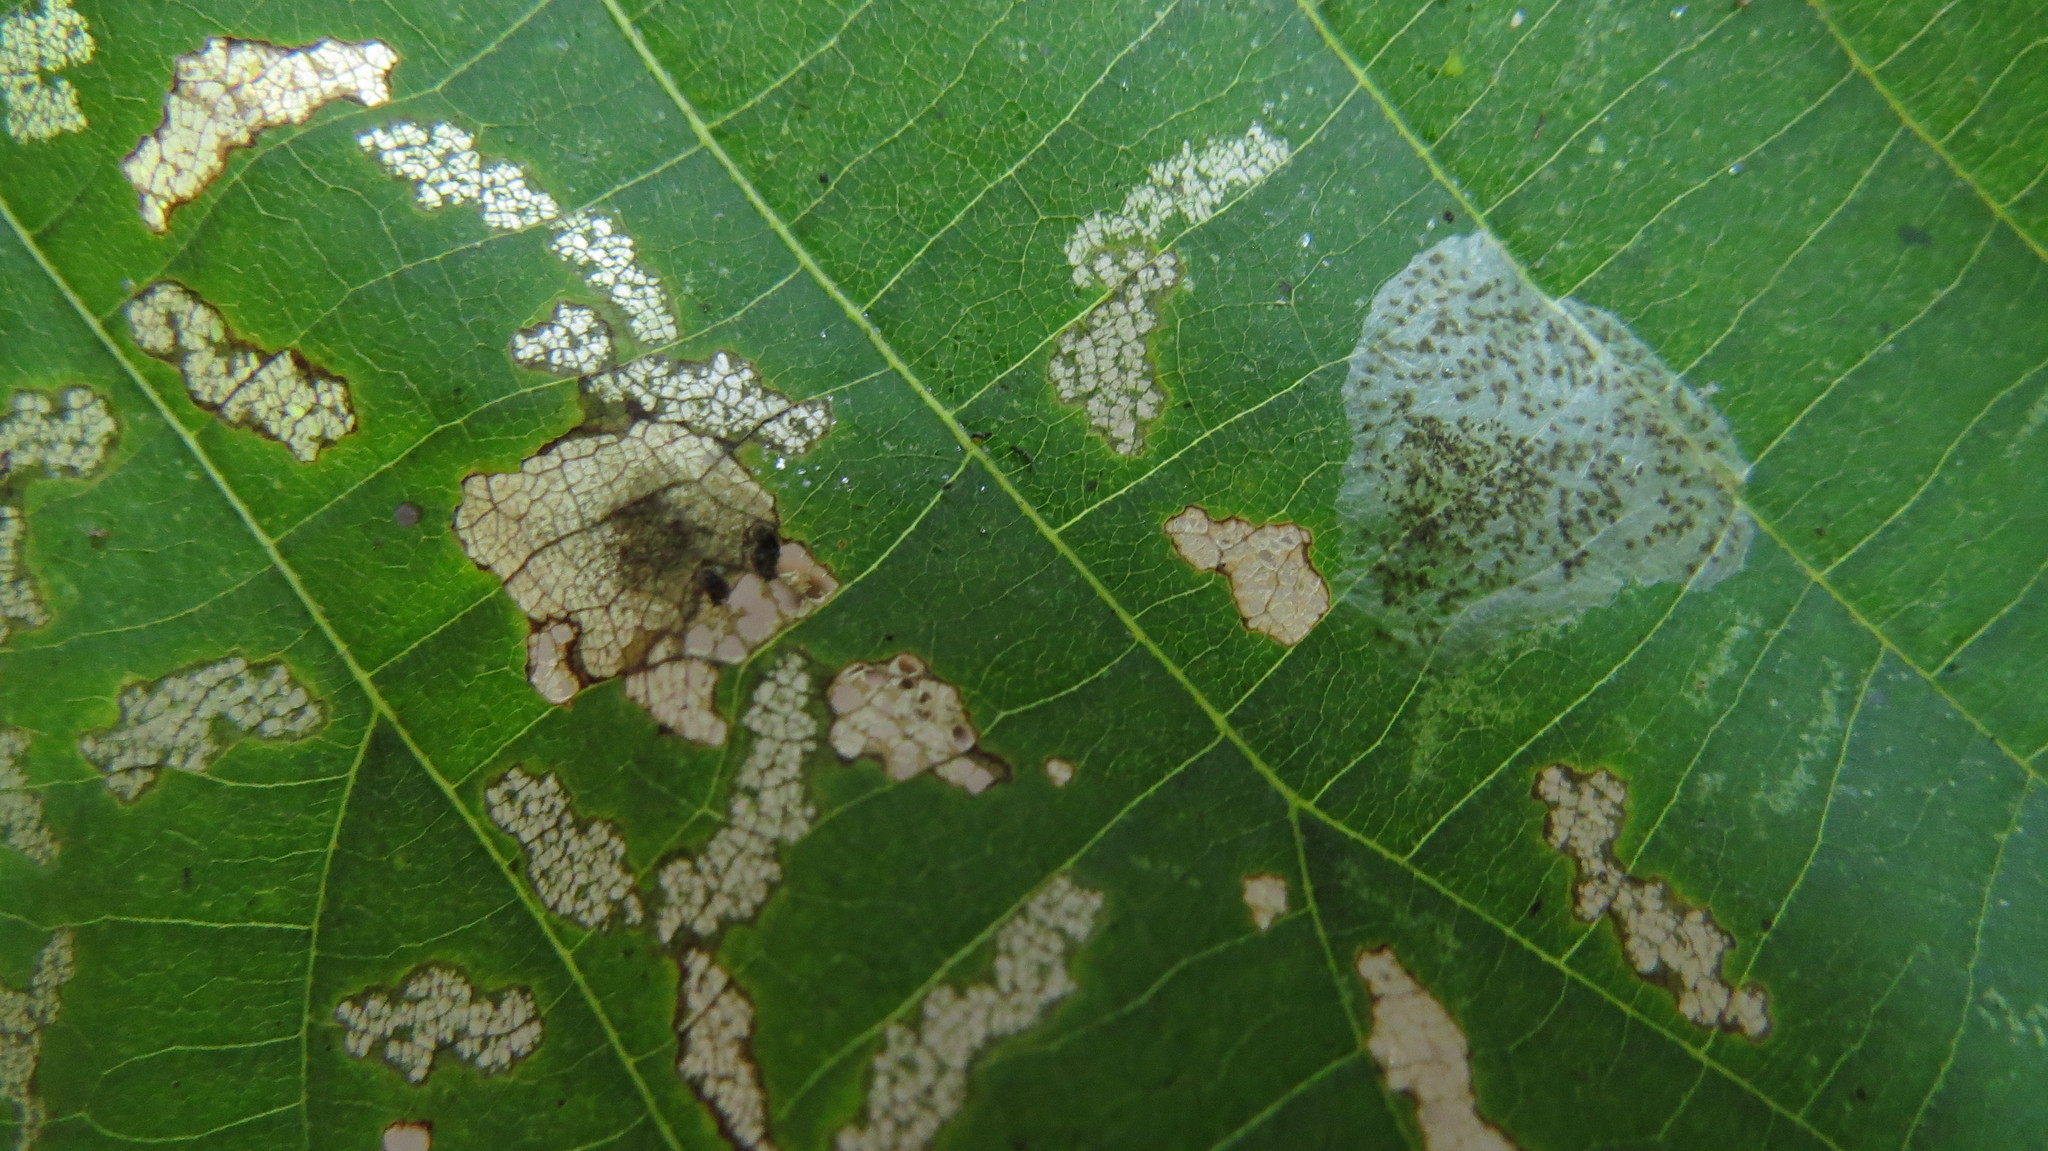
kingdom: Animalia
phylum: Arthropoda
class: Insecta
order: Lepidoptera
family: Gracillariidae
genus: Phyllonorycter
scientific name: Phyllonorycter tiliacella
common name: Basswood round-blotch miner moth
